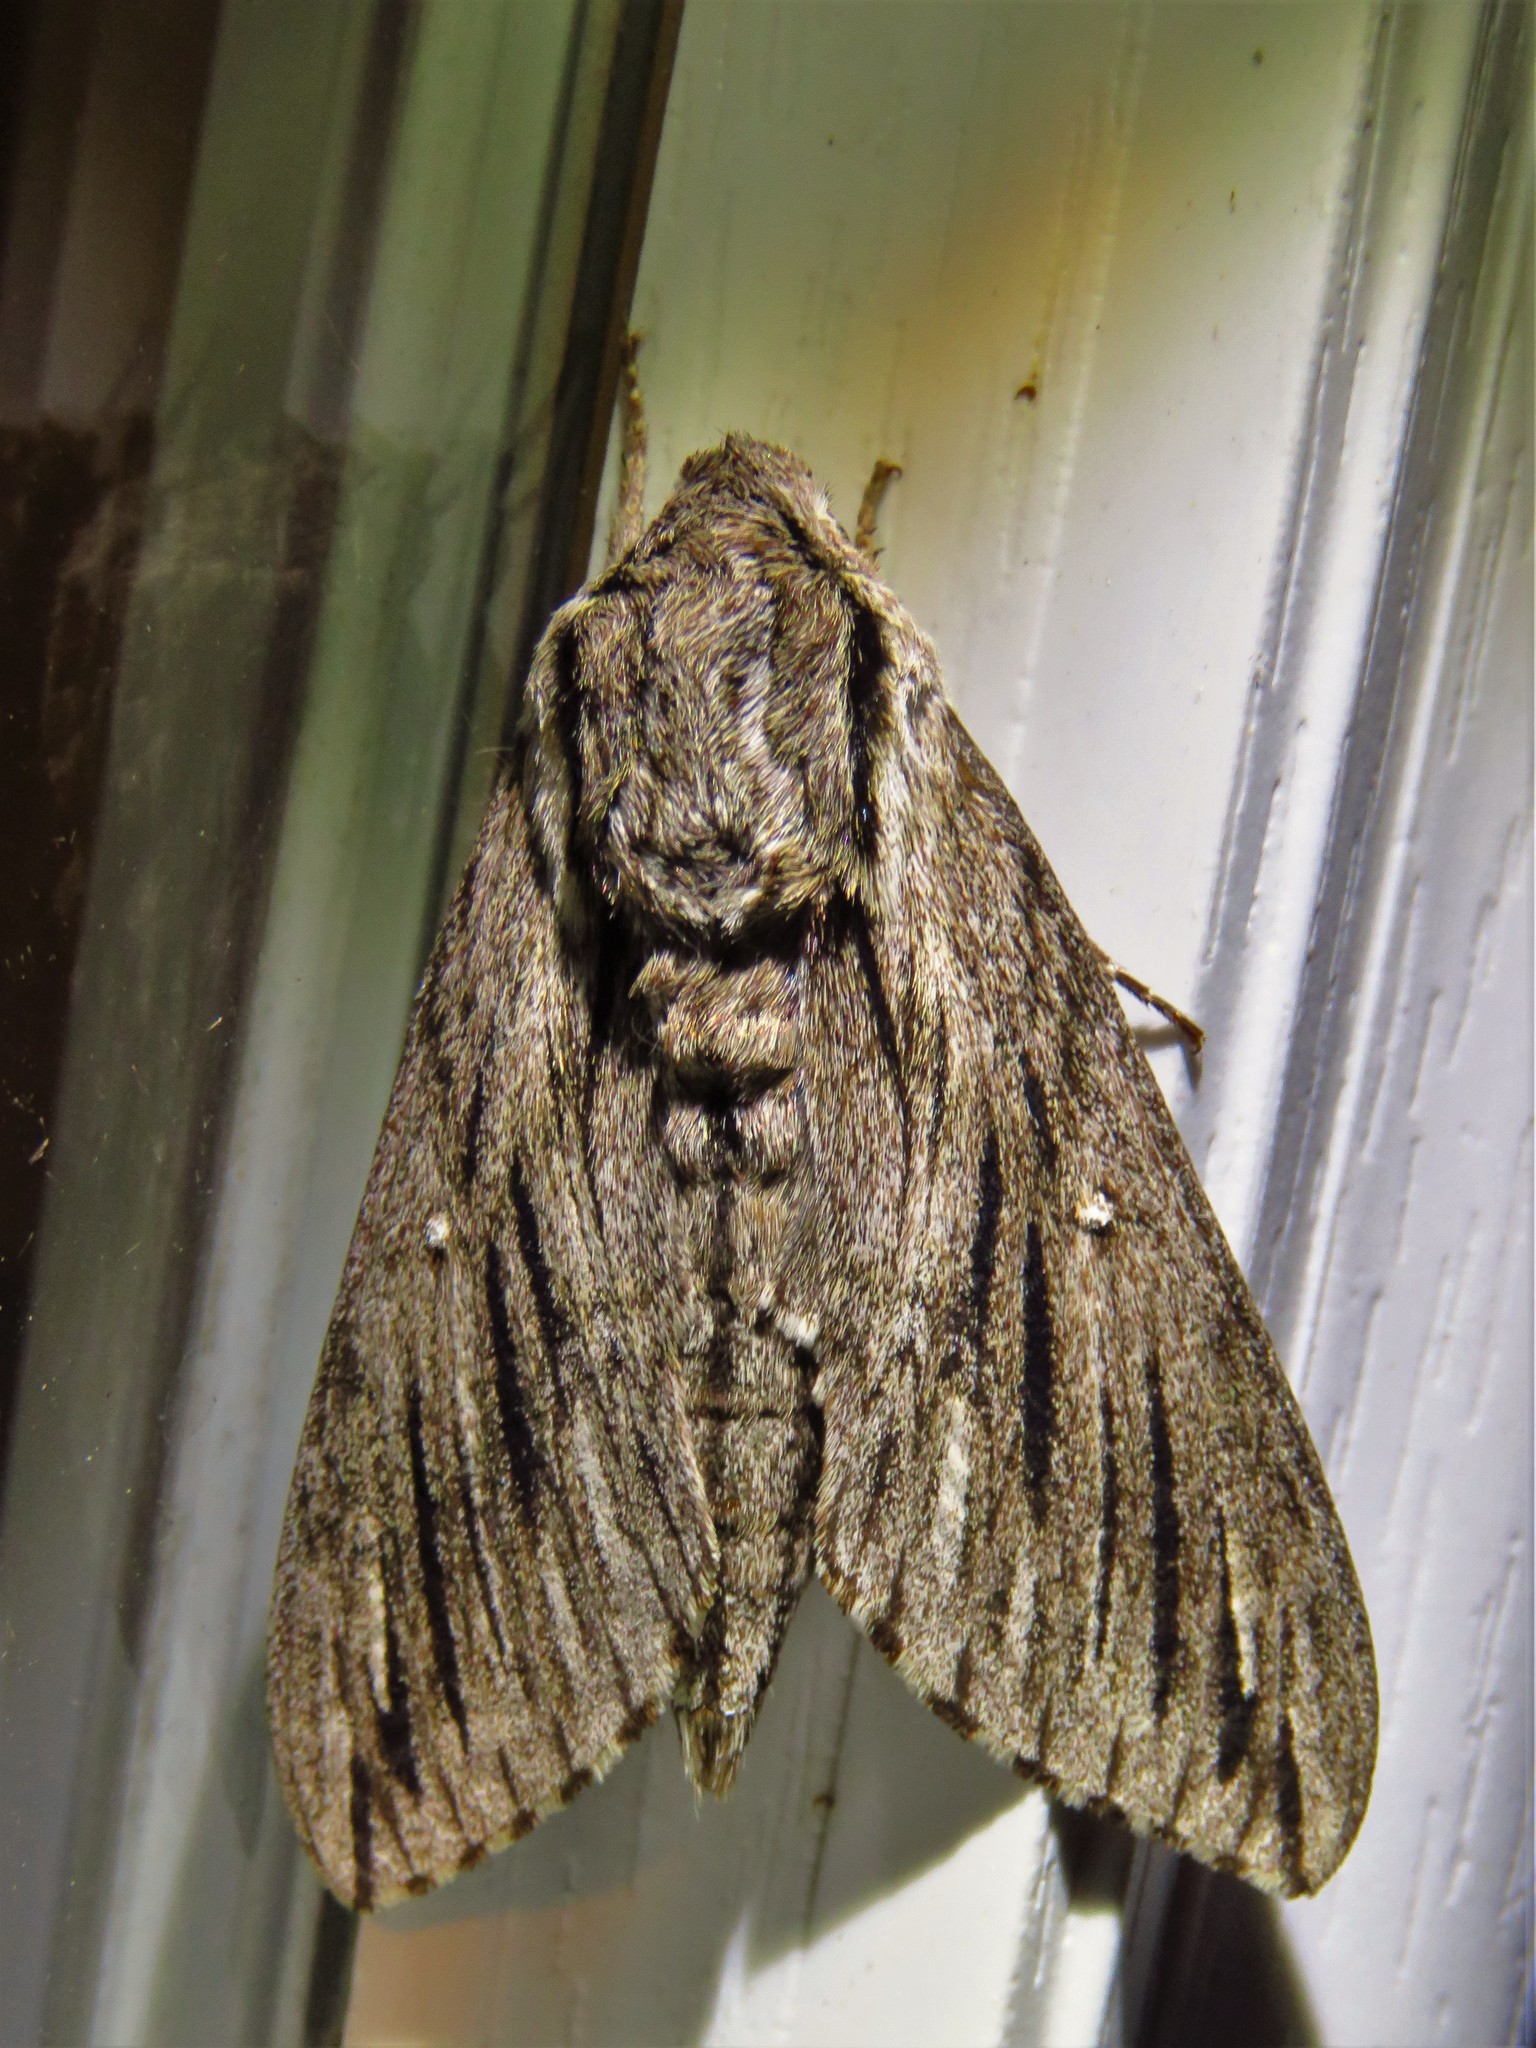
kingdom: Animalia
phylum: Arthropoda
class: Insecta
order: Lepidoptera
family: Sphingidae
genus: Paratrea
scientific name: Paratrea plebeja
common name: Plebian sphinx
